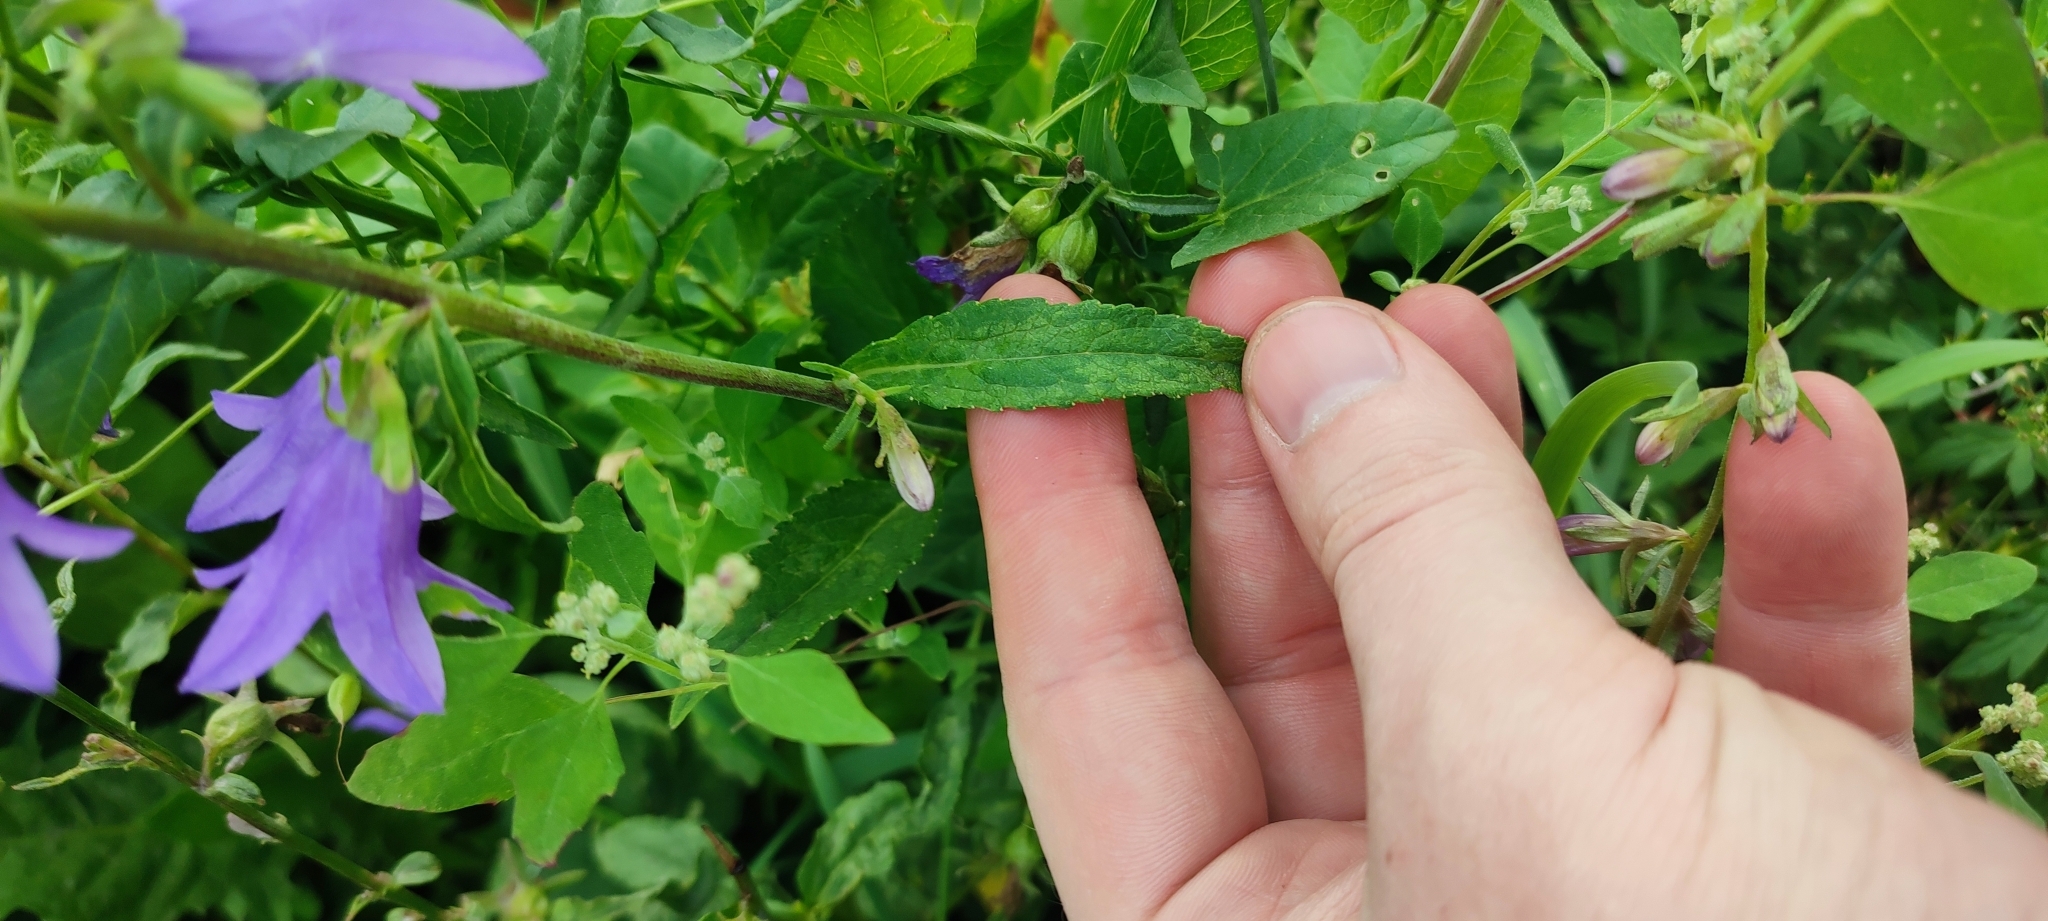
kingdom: Plantae
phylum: Tracheophyta
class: Magnoliopsida
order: Asterales
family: Campanulaceae
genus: Campanula
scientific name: Campanula rapunculoides
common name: Creeping bellflower
